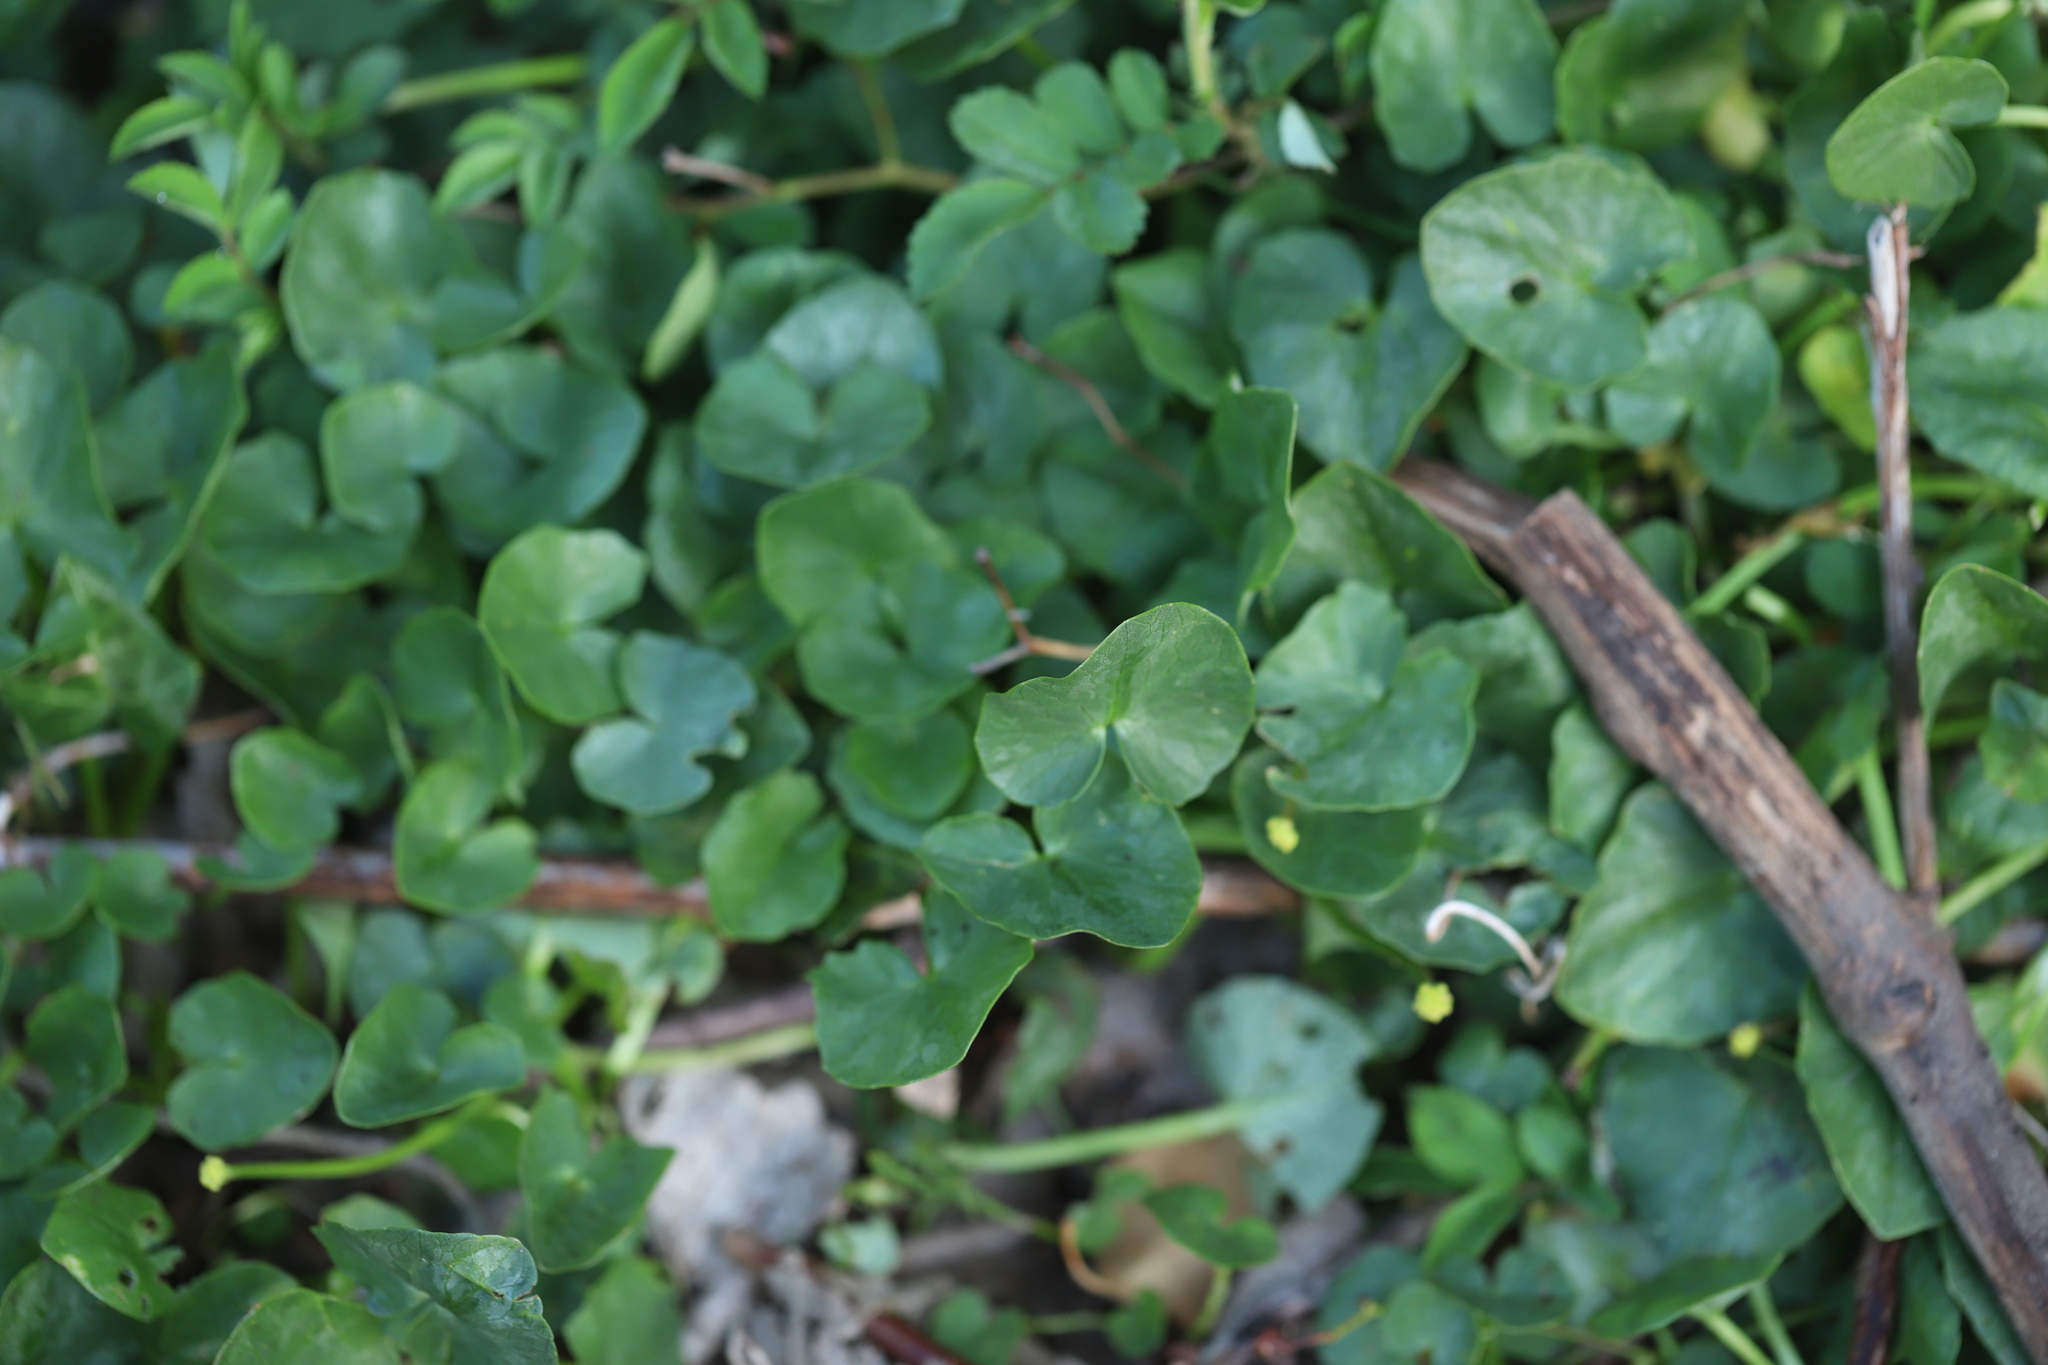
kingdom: Plantae
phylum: Tracheophyta
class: Magnoliopsida
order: Ranunculales
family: Ranunculaceae
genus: Ficaria
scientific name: Ficaria verna
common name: Lesser celandine
